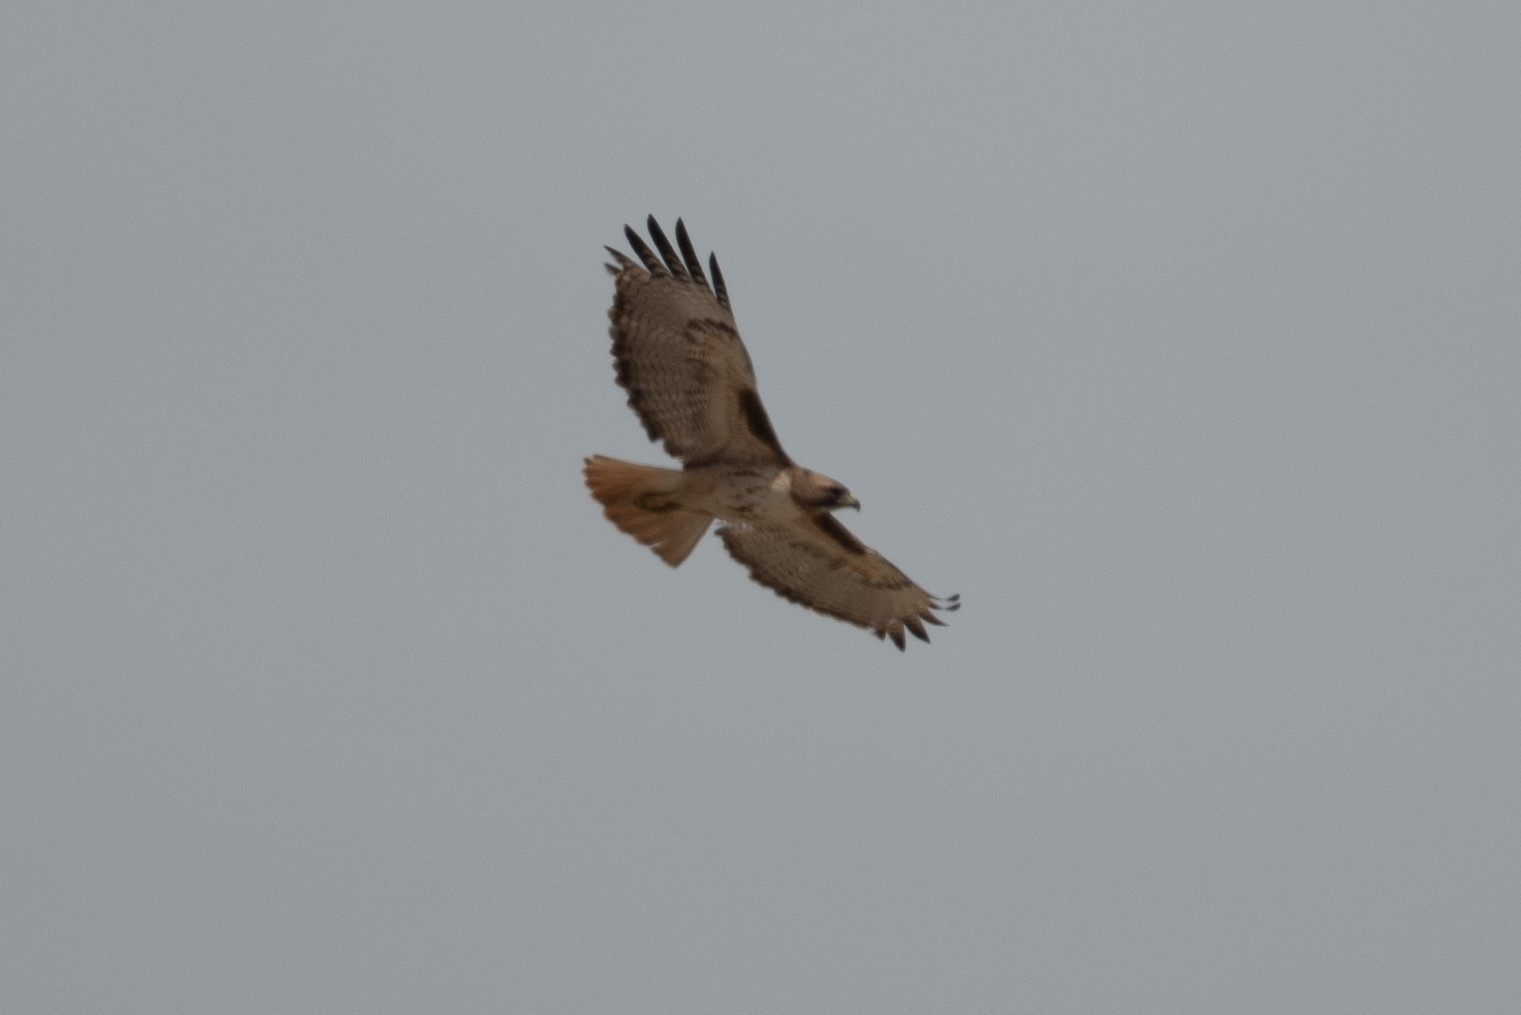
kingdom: Animalia
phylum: Chordata
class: Aves
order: Accipitriformes
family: Accipitridae
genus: Buteo
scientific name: Buteo jamaicensis
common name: Red-tailed hawk
